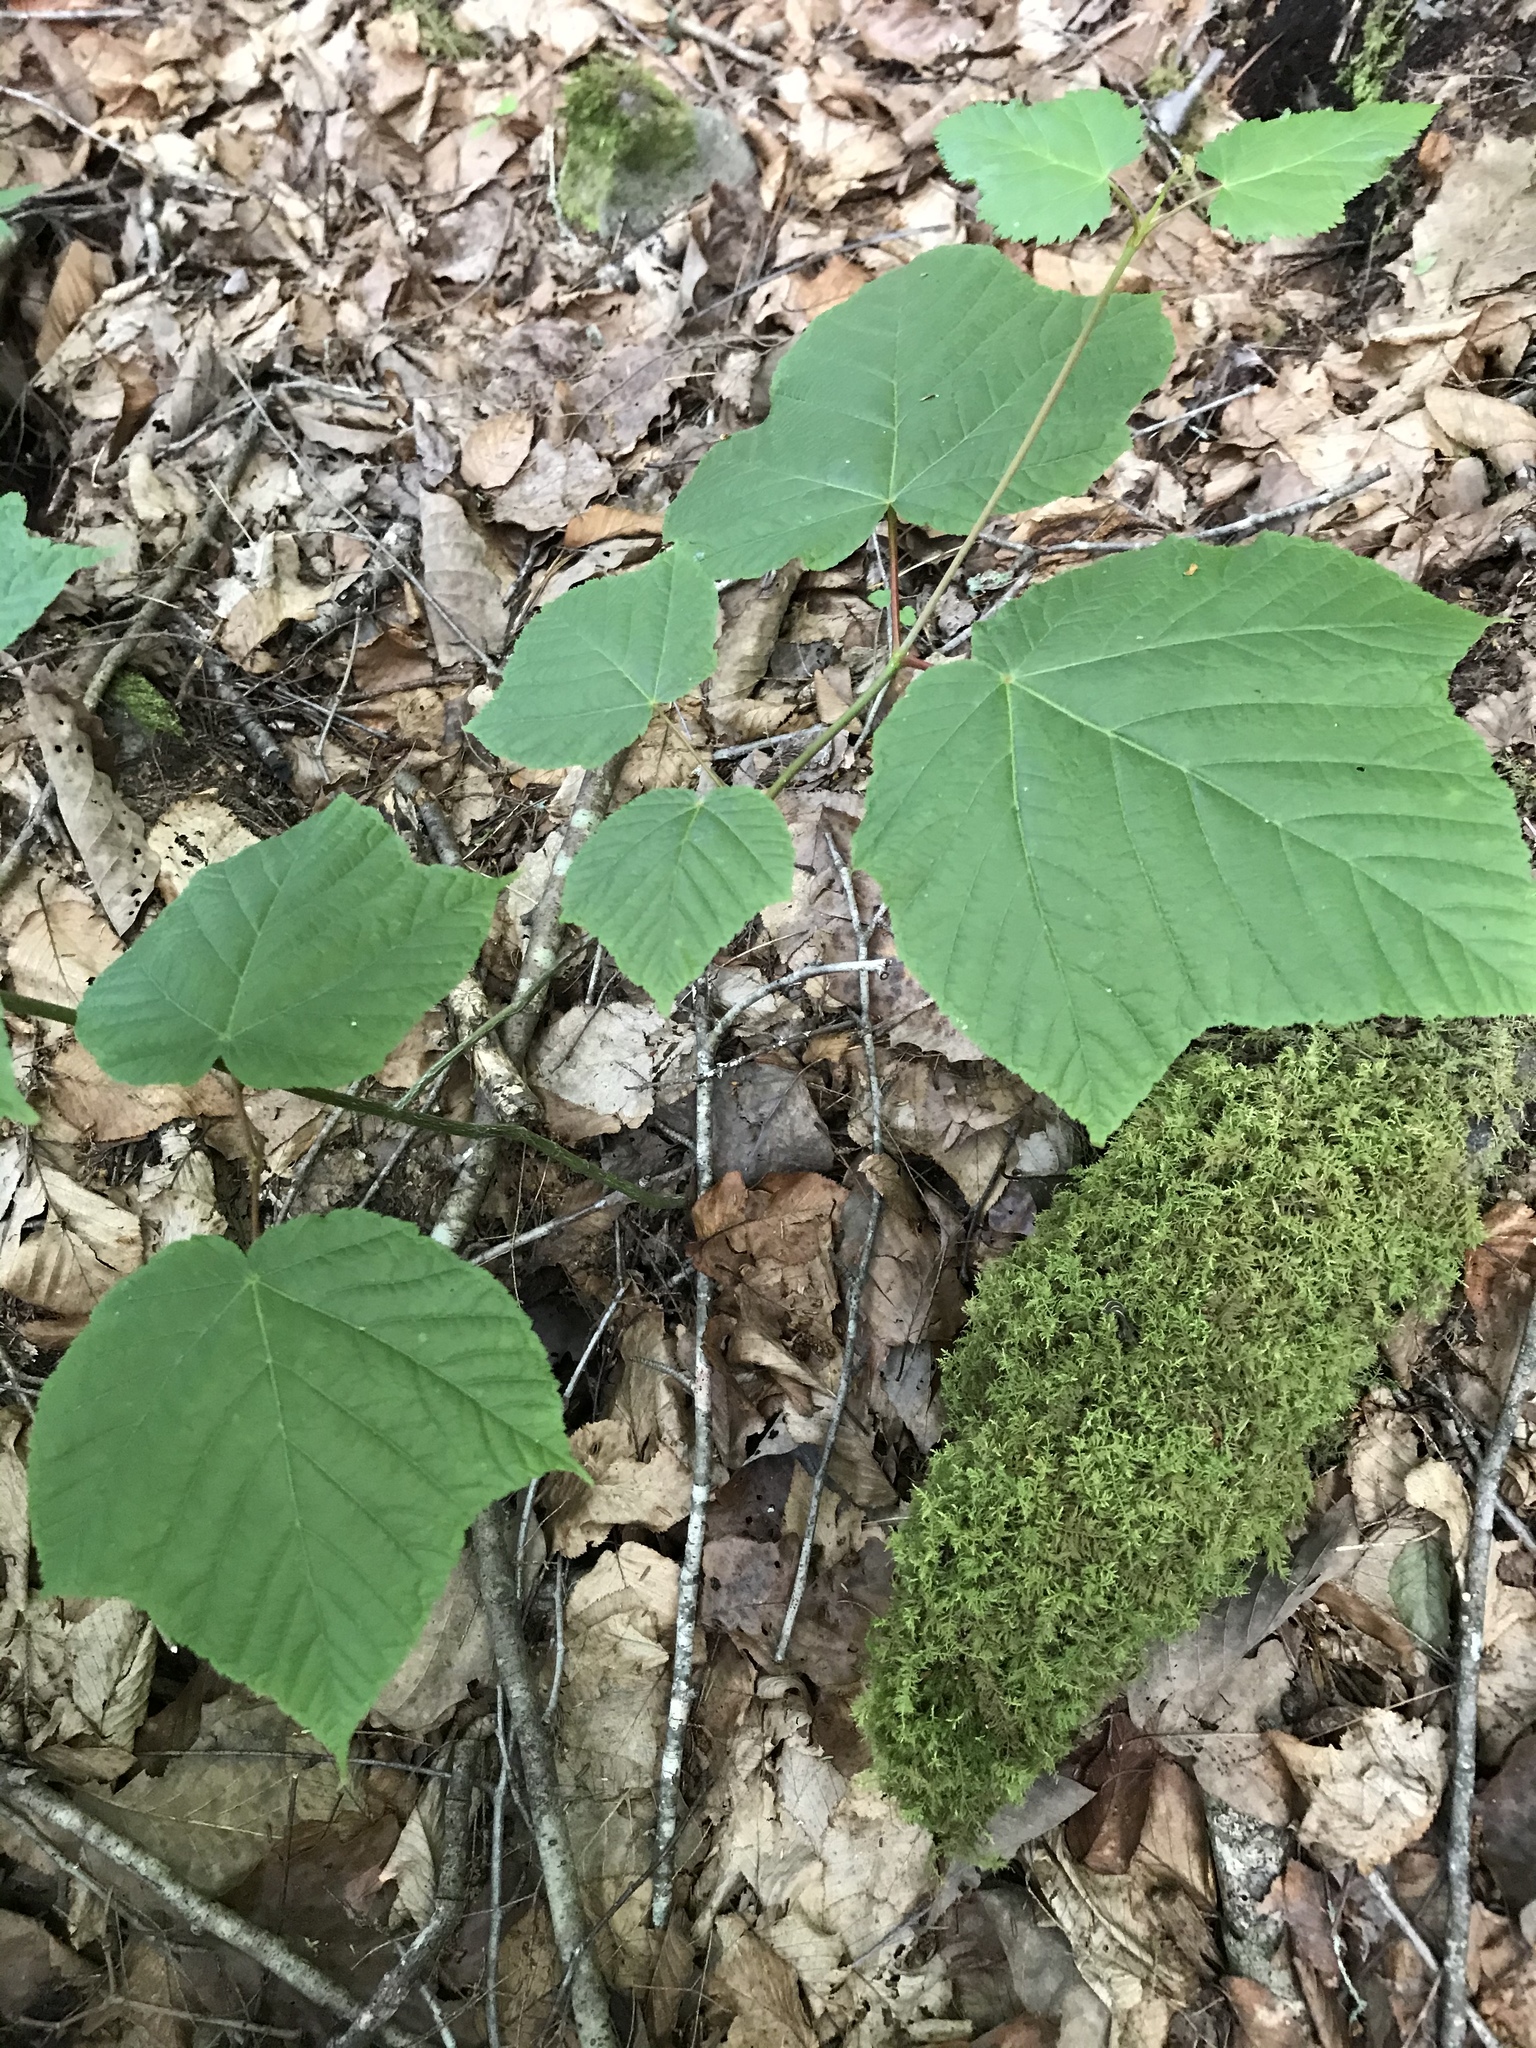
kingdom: Plantae
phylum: Tracheophyta
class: Magnoliopsida
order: Sapindales
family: Sapindaceae
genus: Acer
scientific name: Acer pensylvanicum
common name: Moosewood
